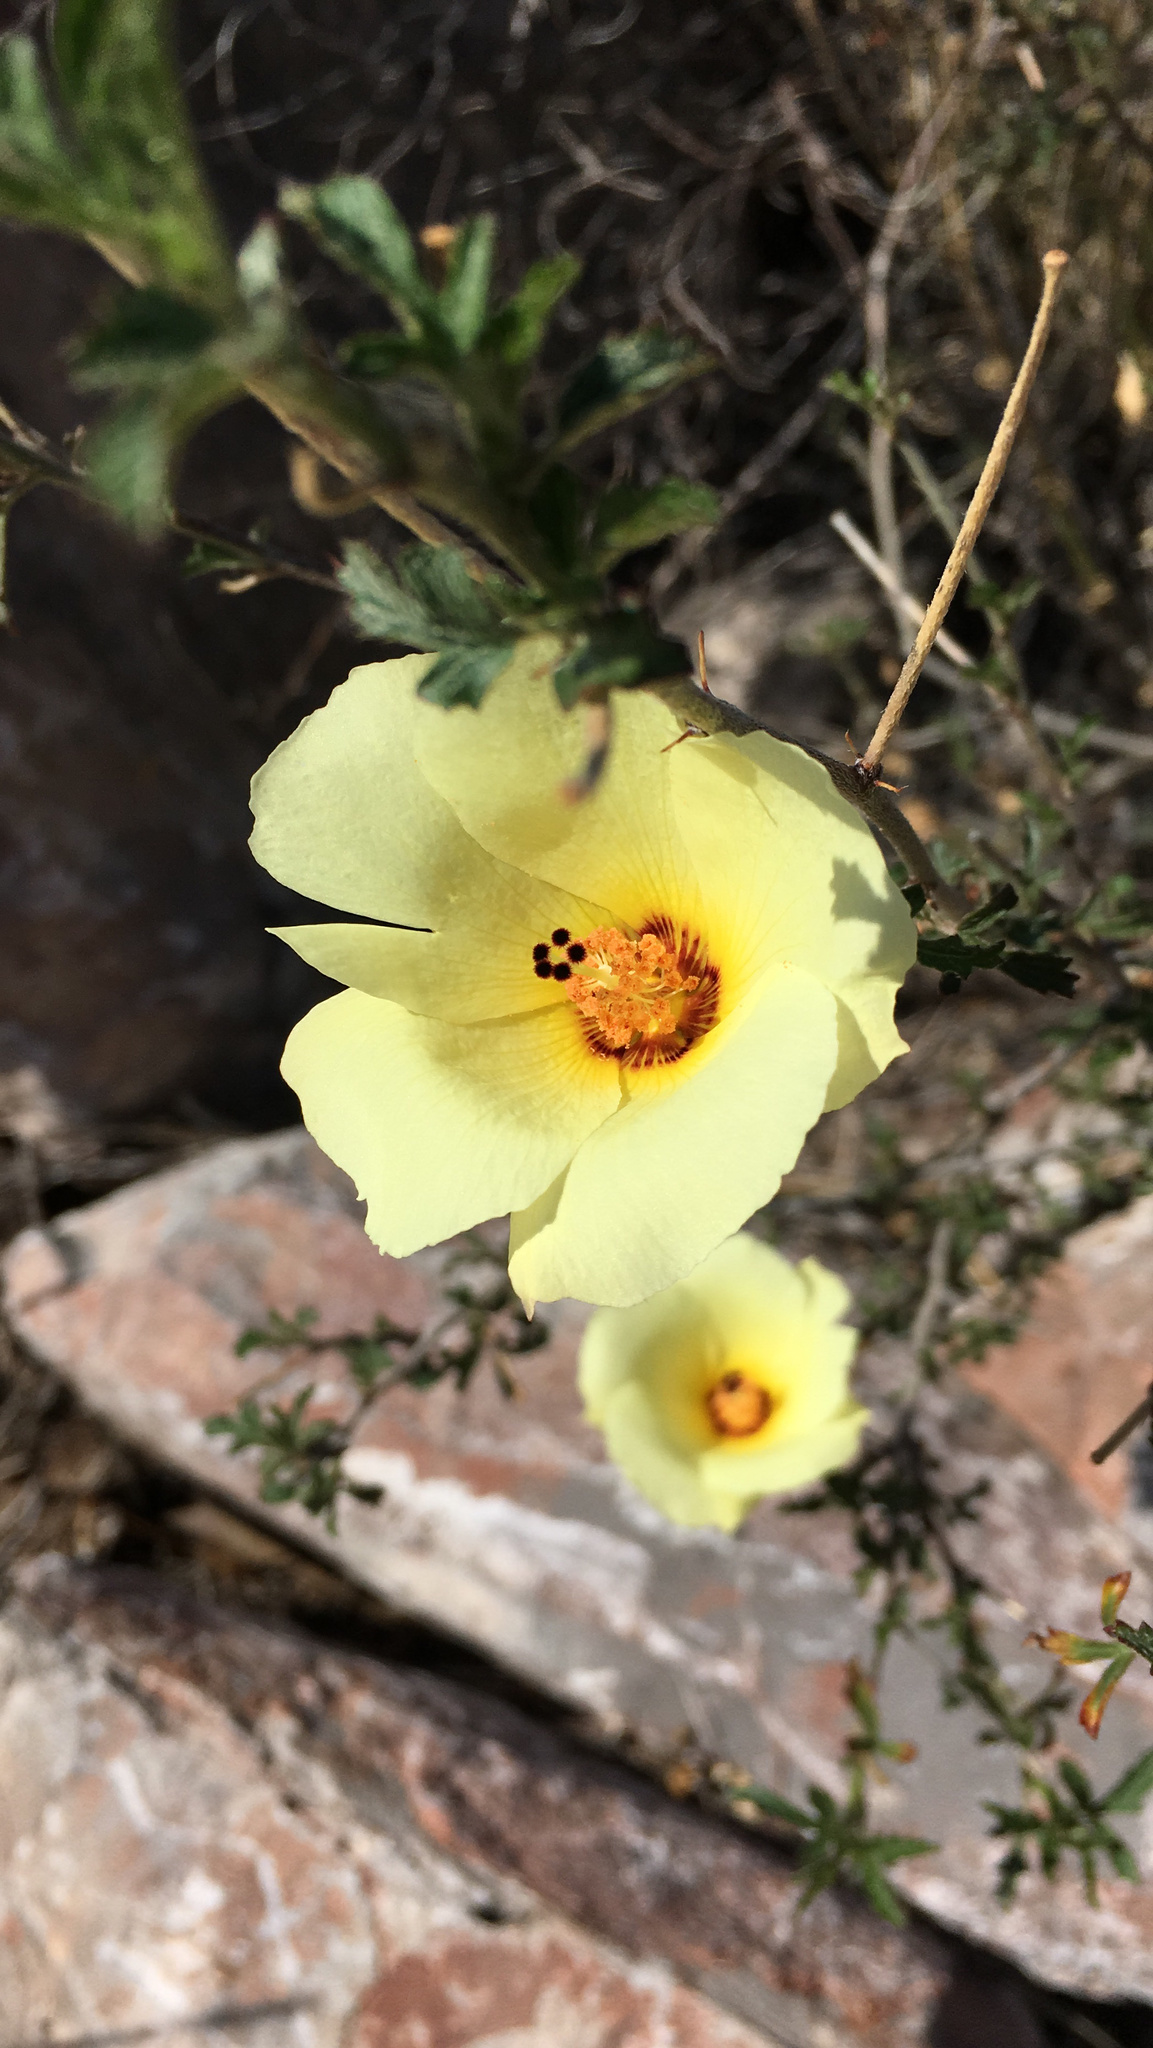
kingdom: Plantae
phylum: Tracheophyta
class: Magnoliopsida
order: Malvales
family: Malvaceae
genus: Hibiscus
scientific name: Hibiscus coulteri
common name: Desert rose-mallow
